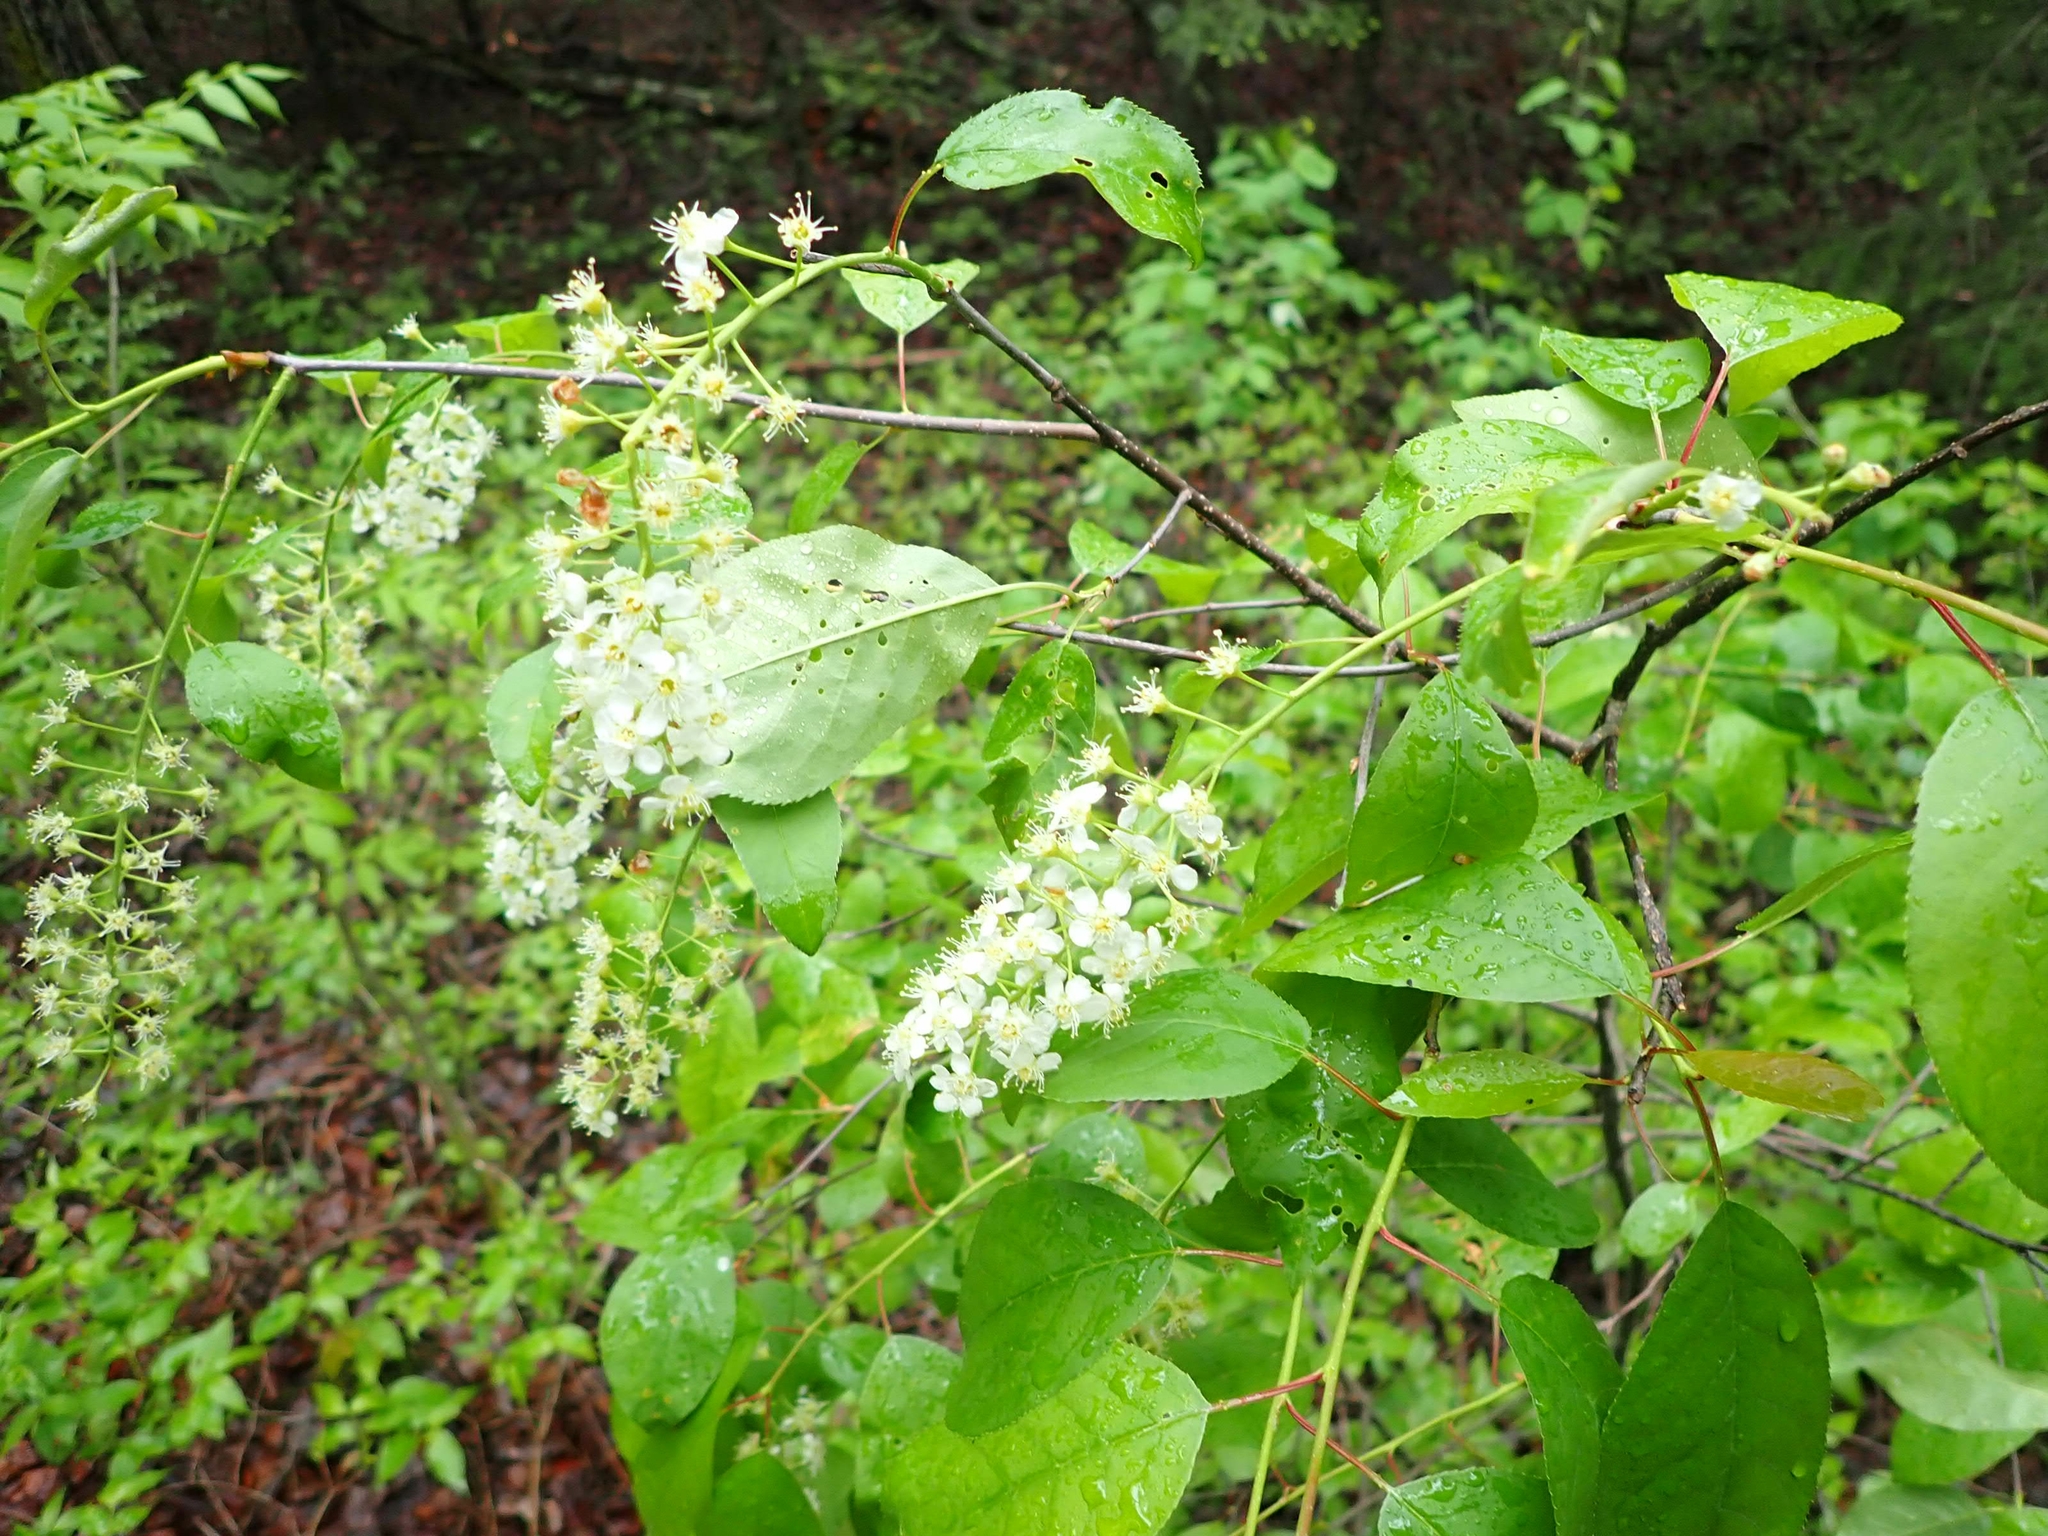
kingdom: Plantae
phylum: Tracheophyta
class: Magnoliopsida
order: Rosales
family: Rosaceae
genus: Prunus
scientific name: Prunus virginiana
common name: Chokecherry
